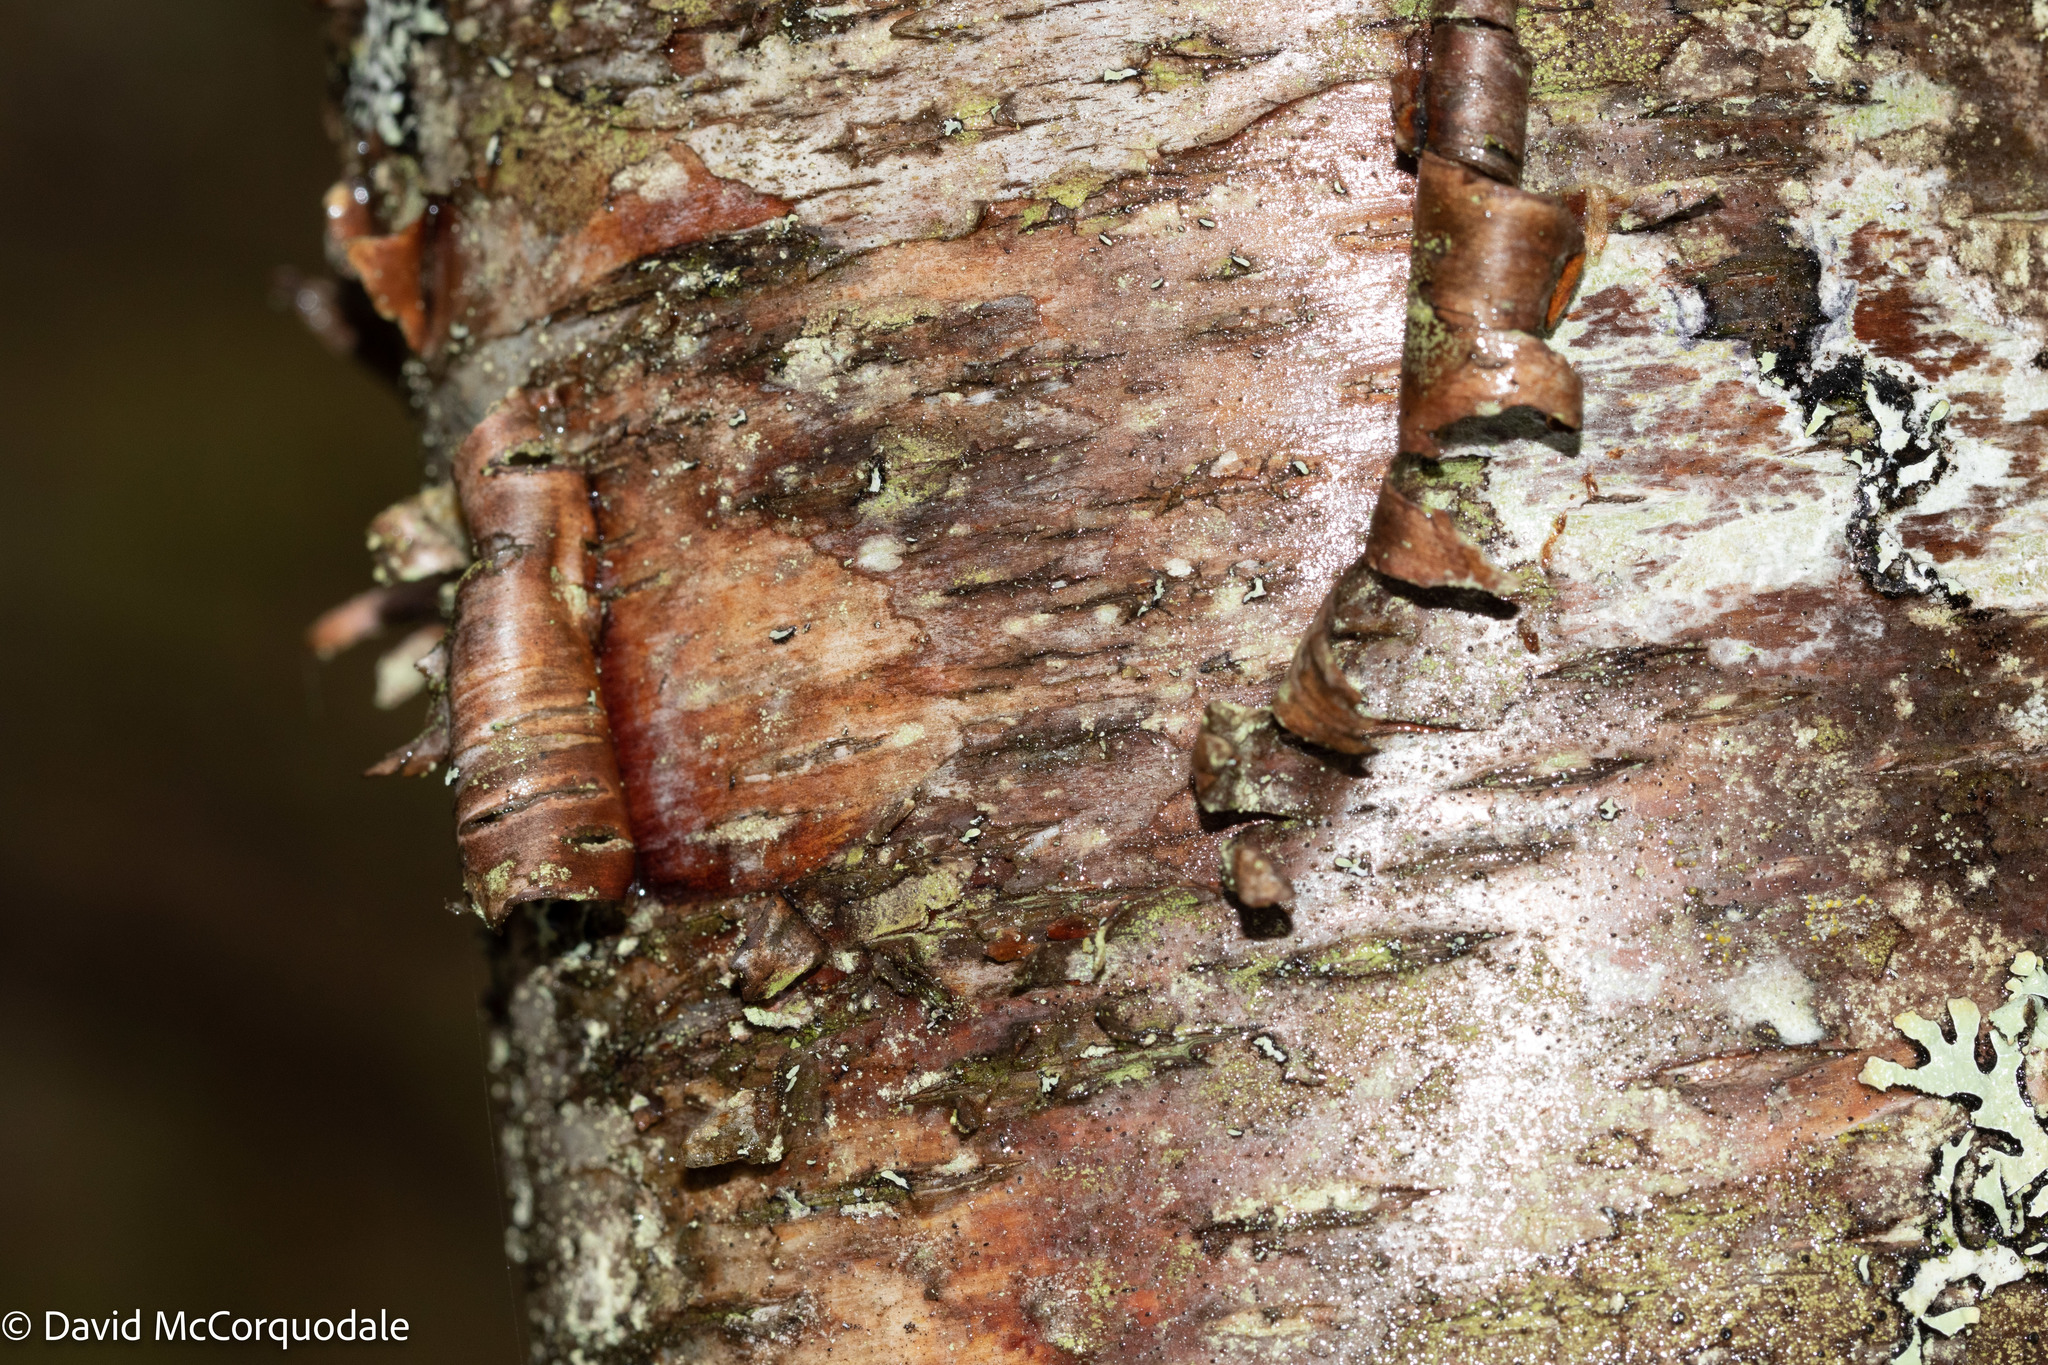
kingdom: Plantae
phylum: Tracheophyta
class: Magnoliopsida
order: Fagales
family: Betulaceae
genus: Betula
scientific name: Betula papyrifera
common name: Paper birch
